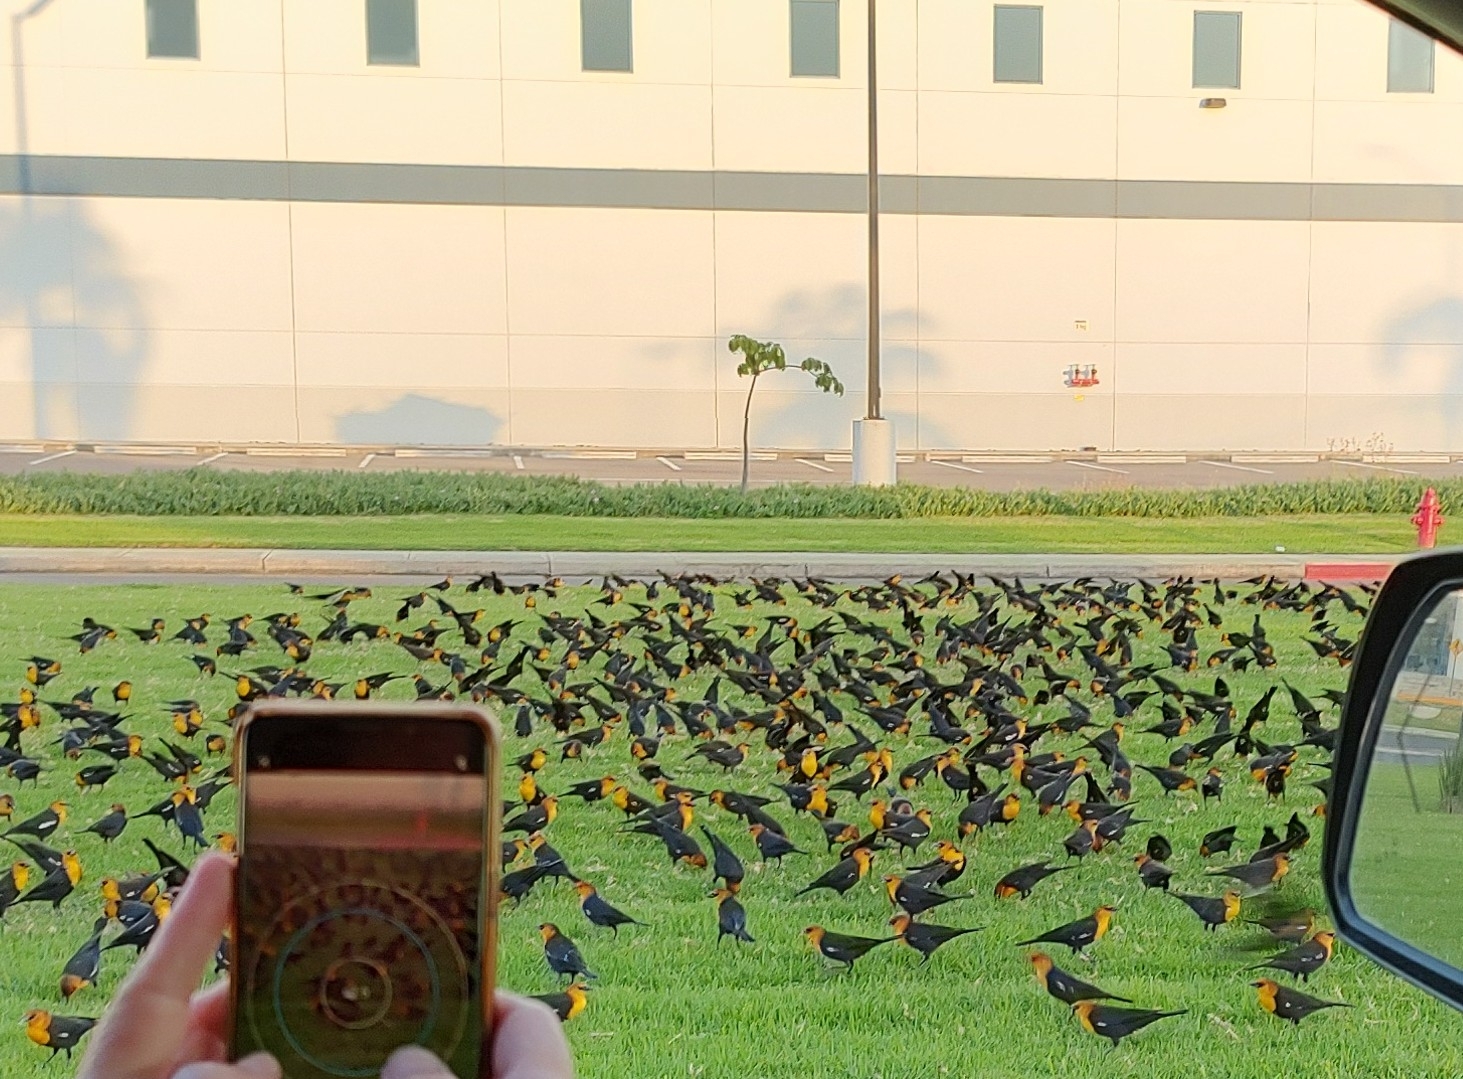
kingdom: Animalia
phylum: Chordata
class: Aves
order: Passeriformes
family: Icteridae
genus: Xanthocephalus
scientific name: Xanthocephalus xanthocephalus
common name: Yellow-headed blackbird
